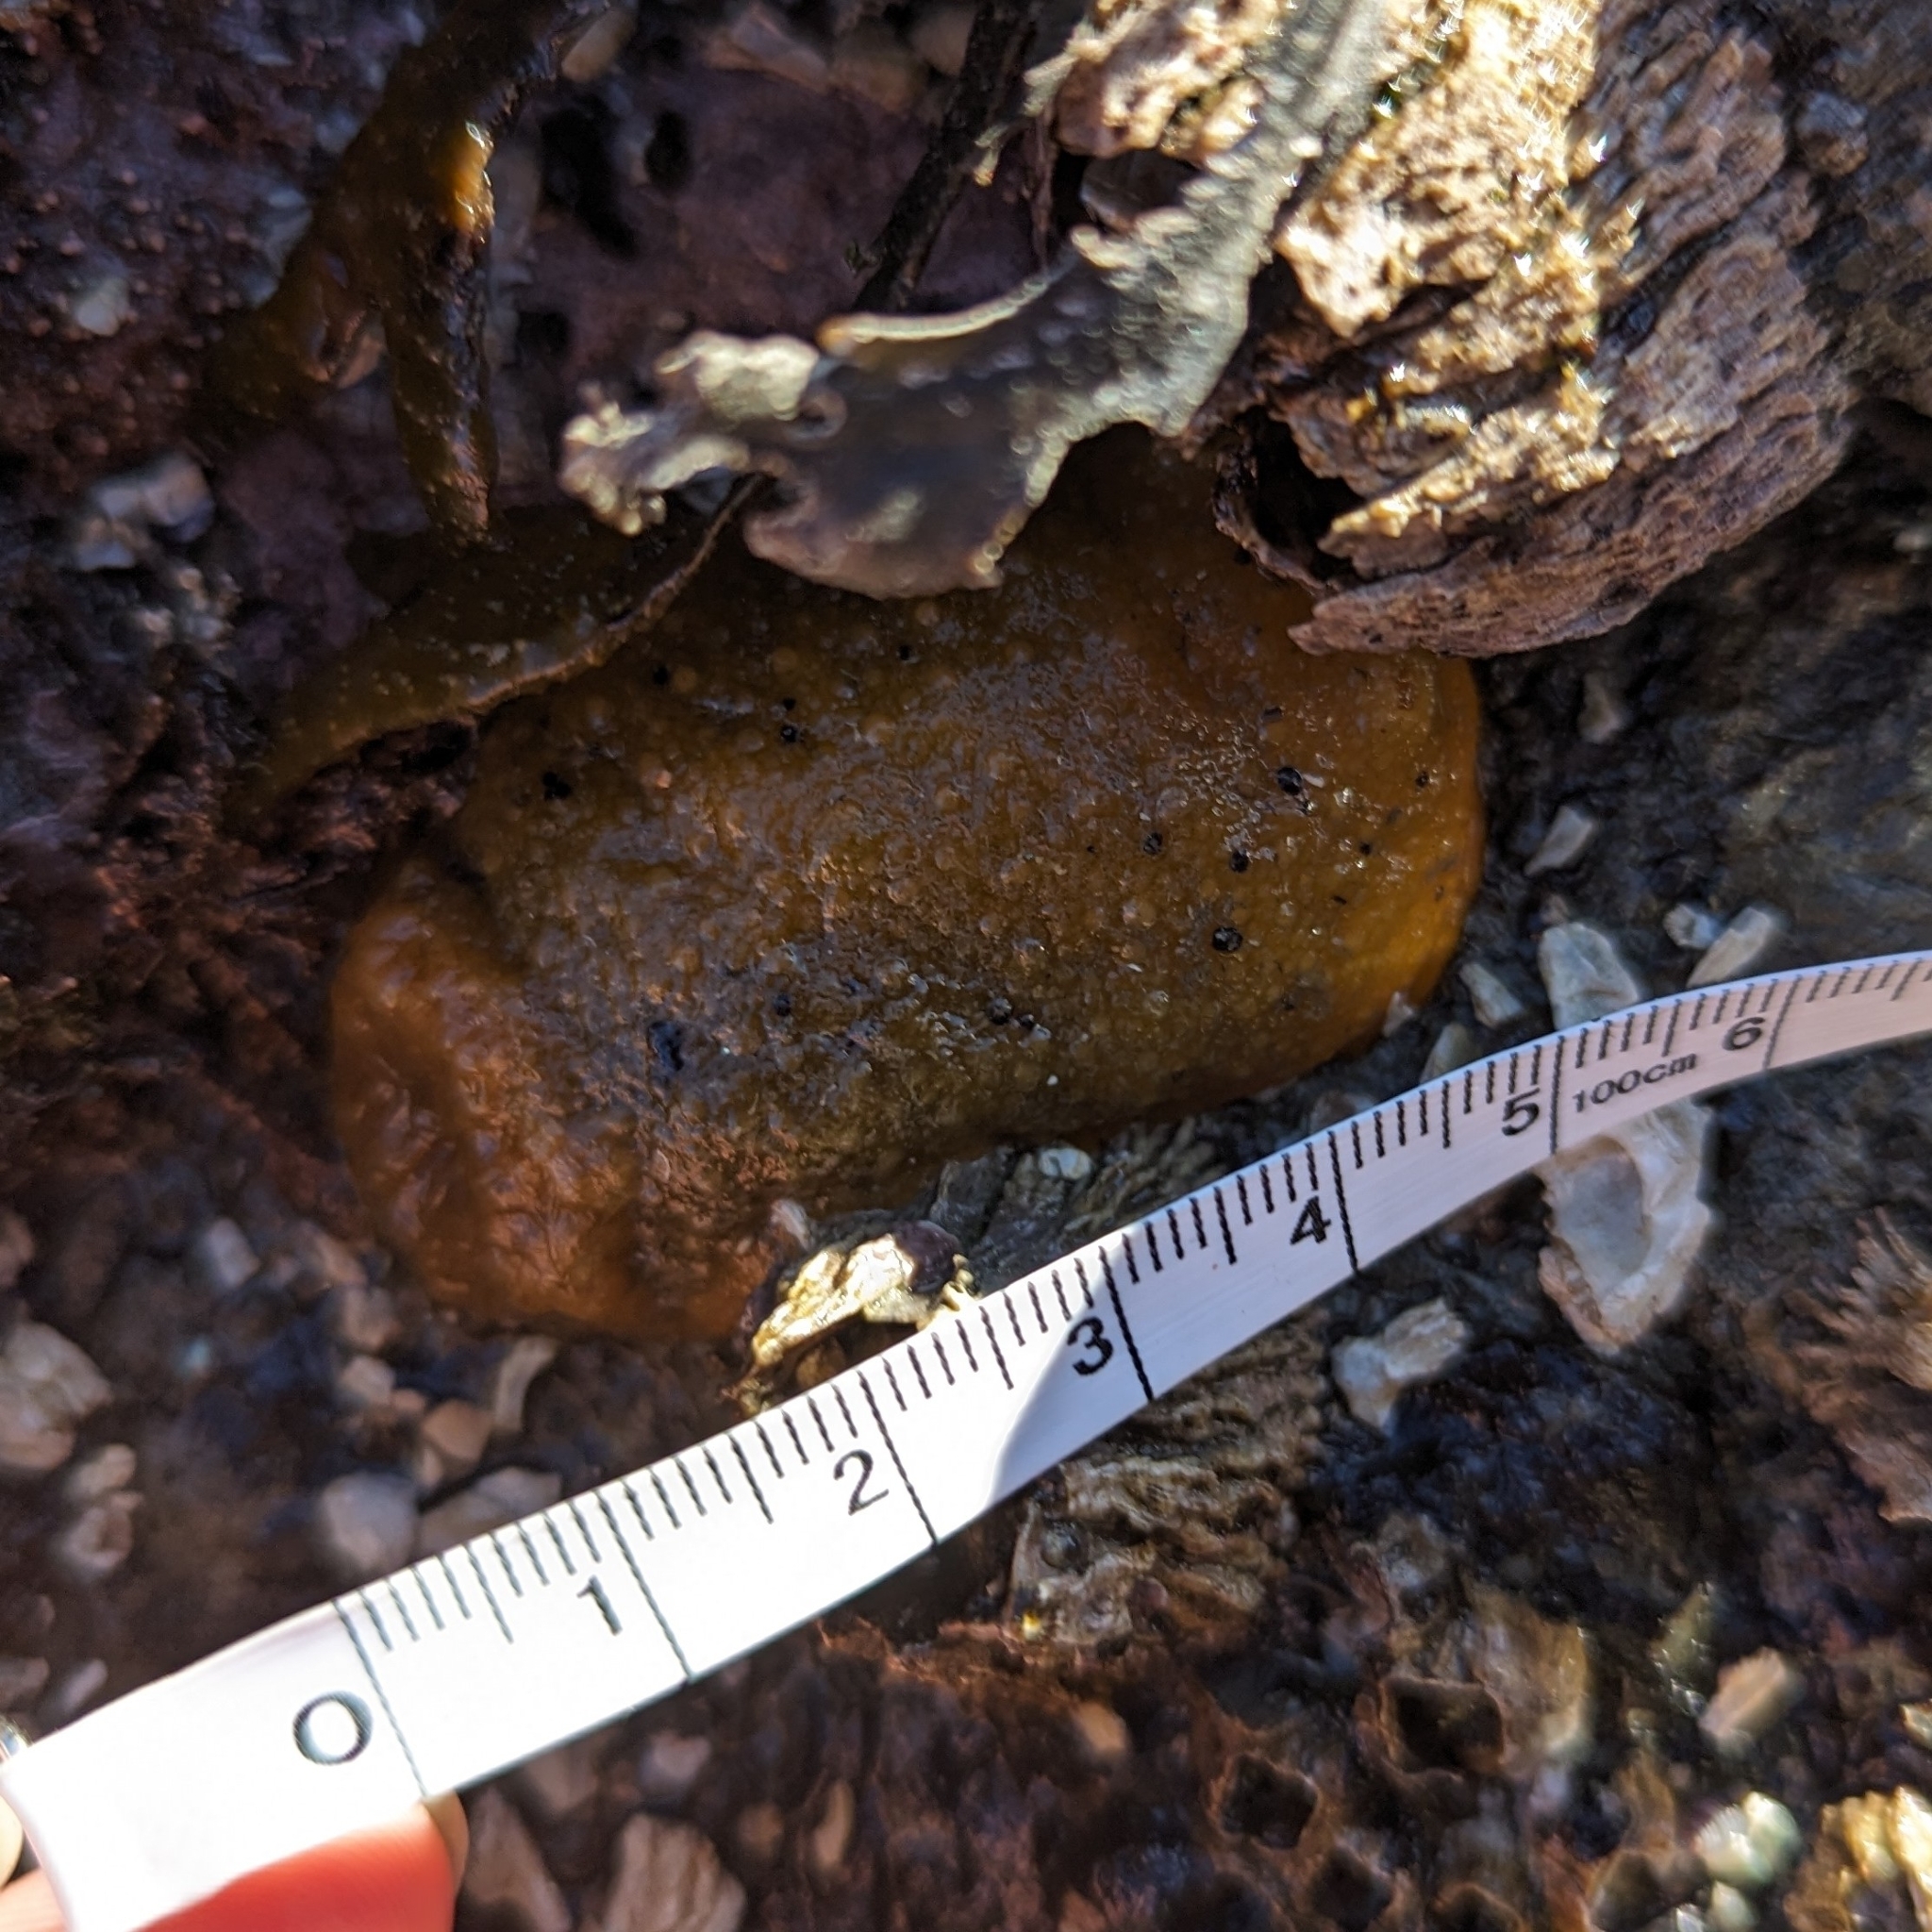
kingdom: Animalia
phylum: Mollusca
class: Gastropoda
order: Nudibranchia
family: Dorididae
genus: Doris
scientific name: Doris montereyensis
